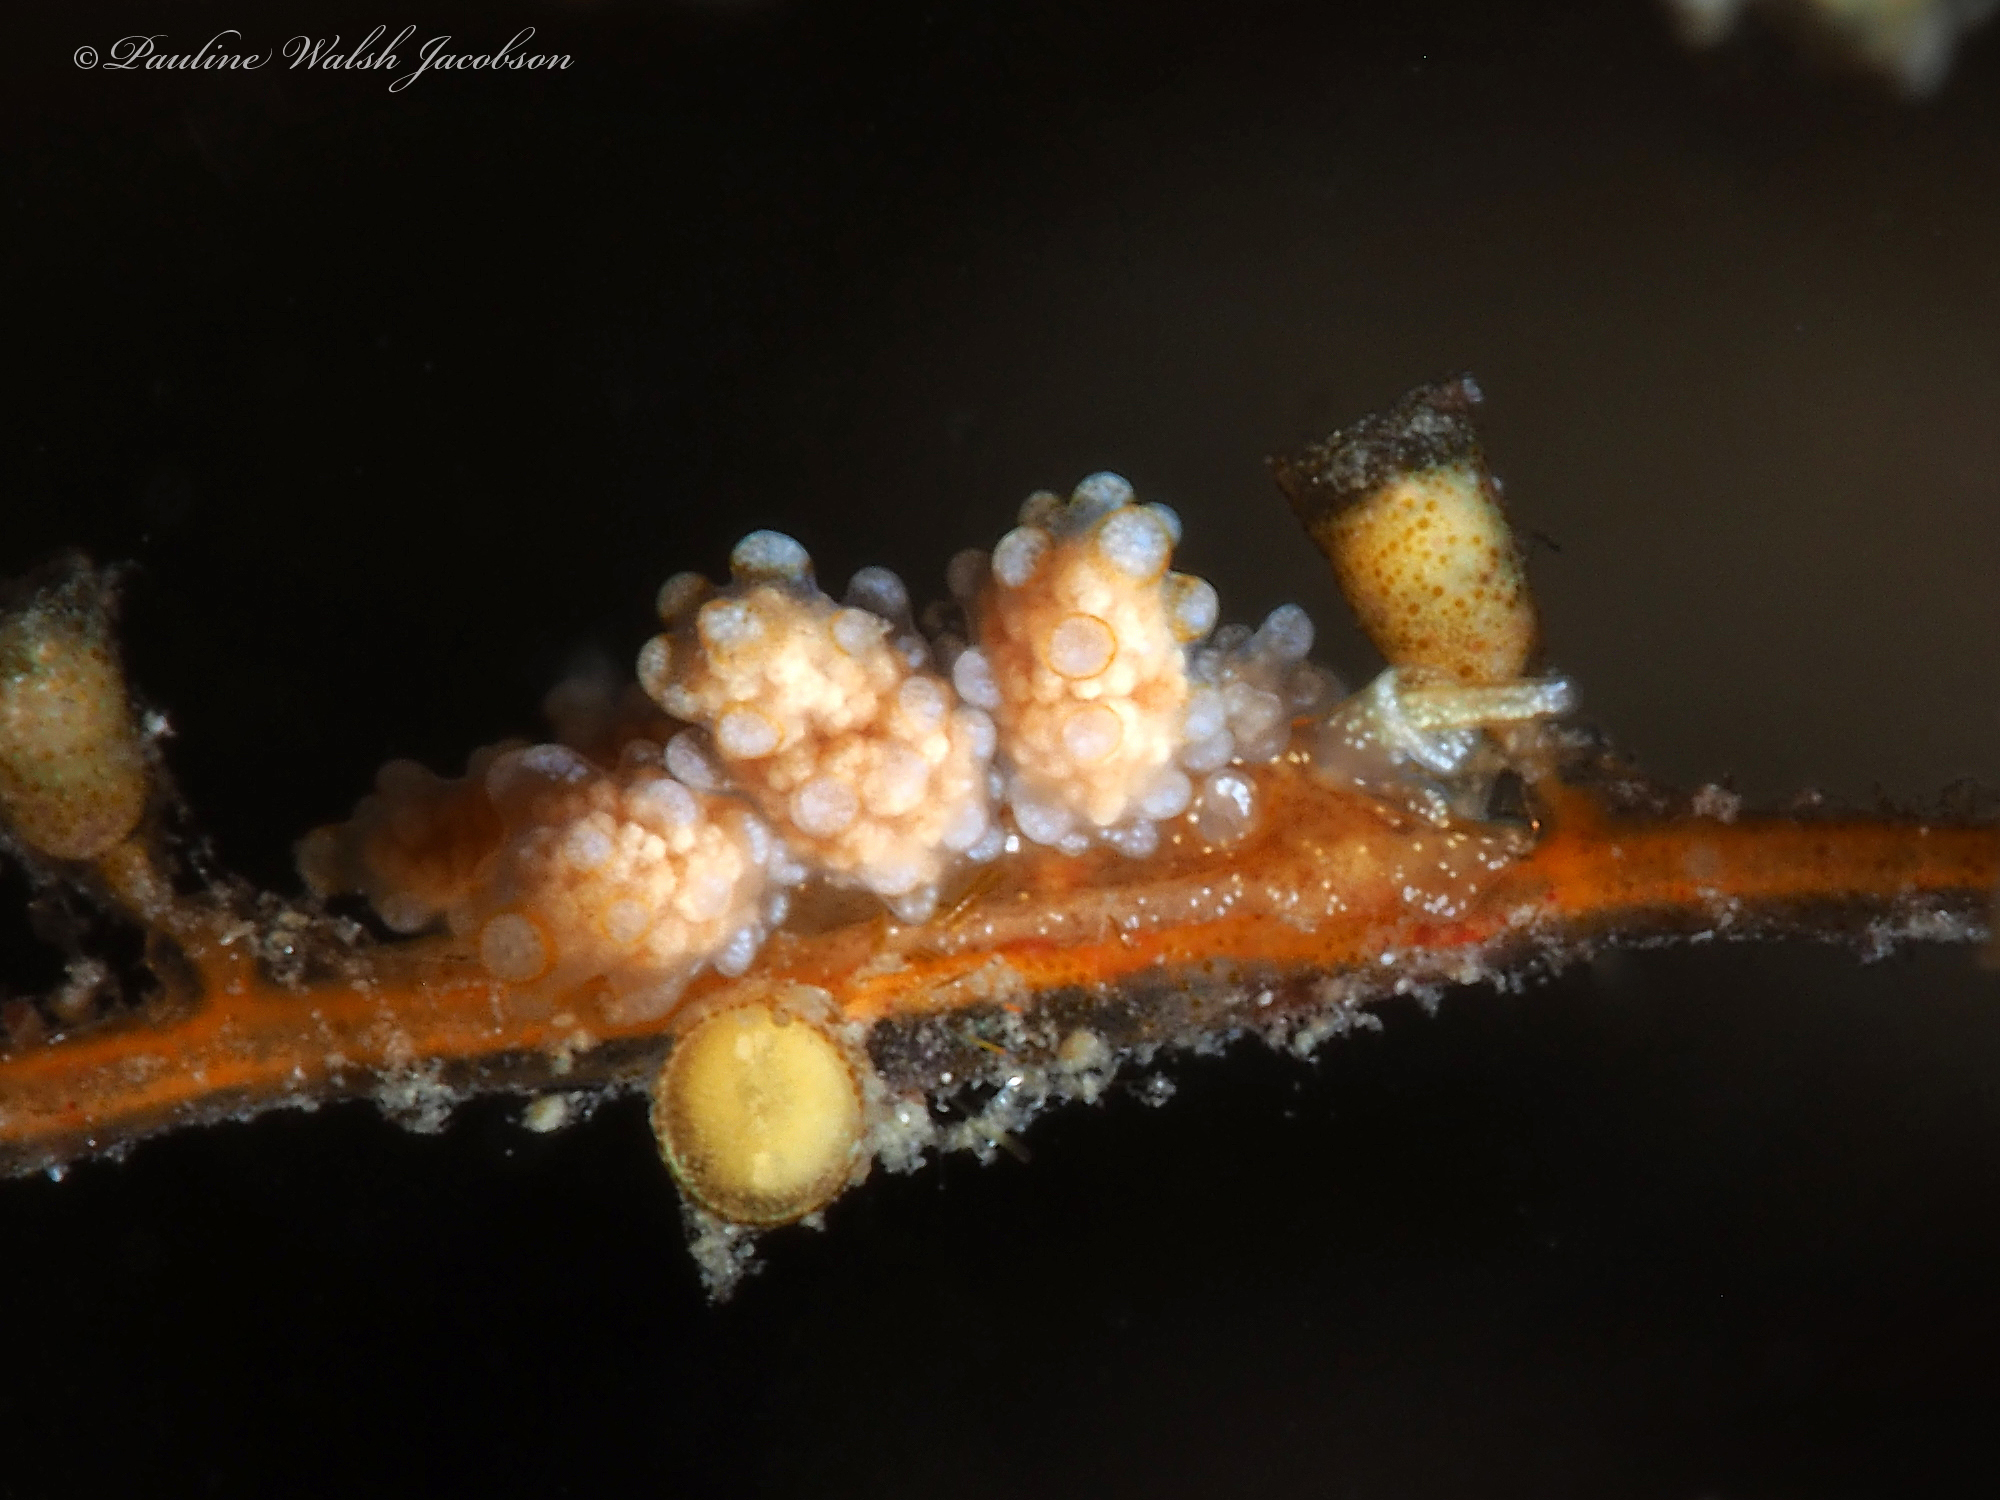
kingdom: Animalia
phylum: Mollusca
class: Gastropoda
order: Nudibranchia
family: Dotidae
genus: Doto
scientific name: Doto torrelavega
